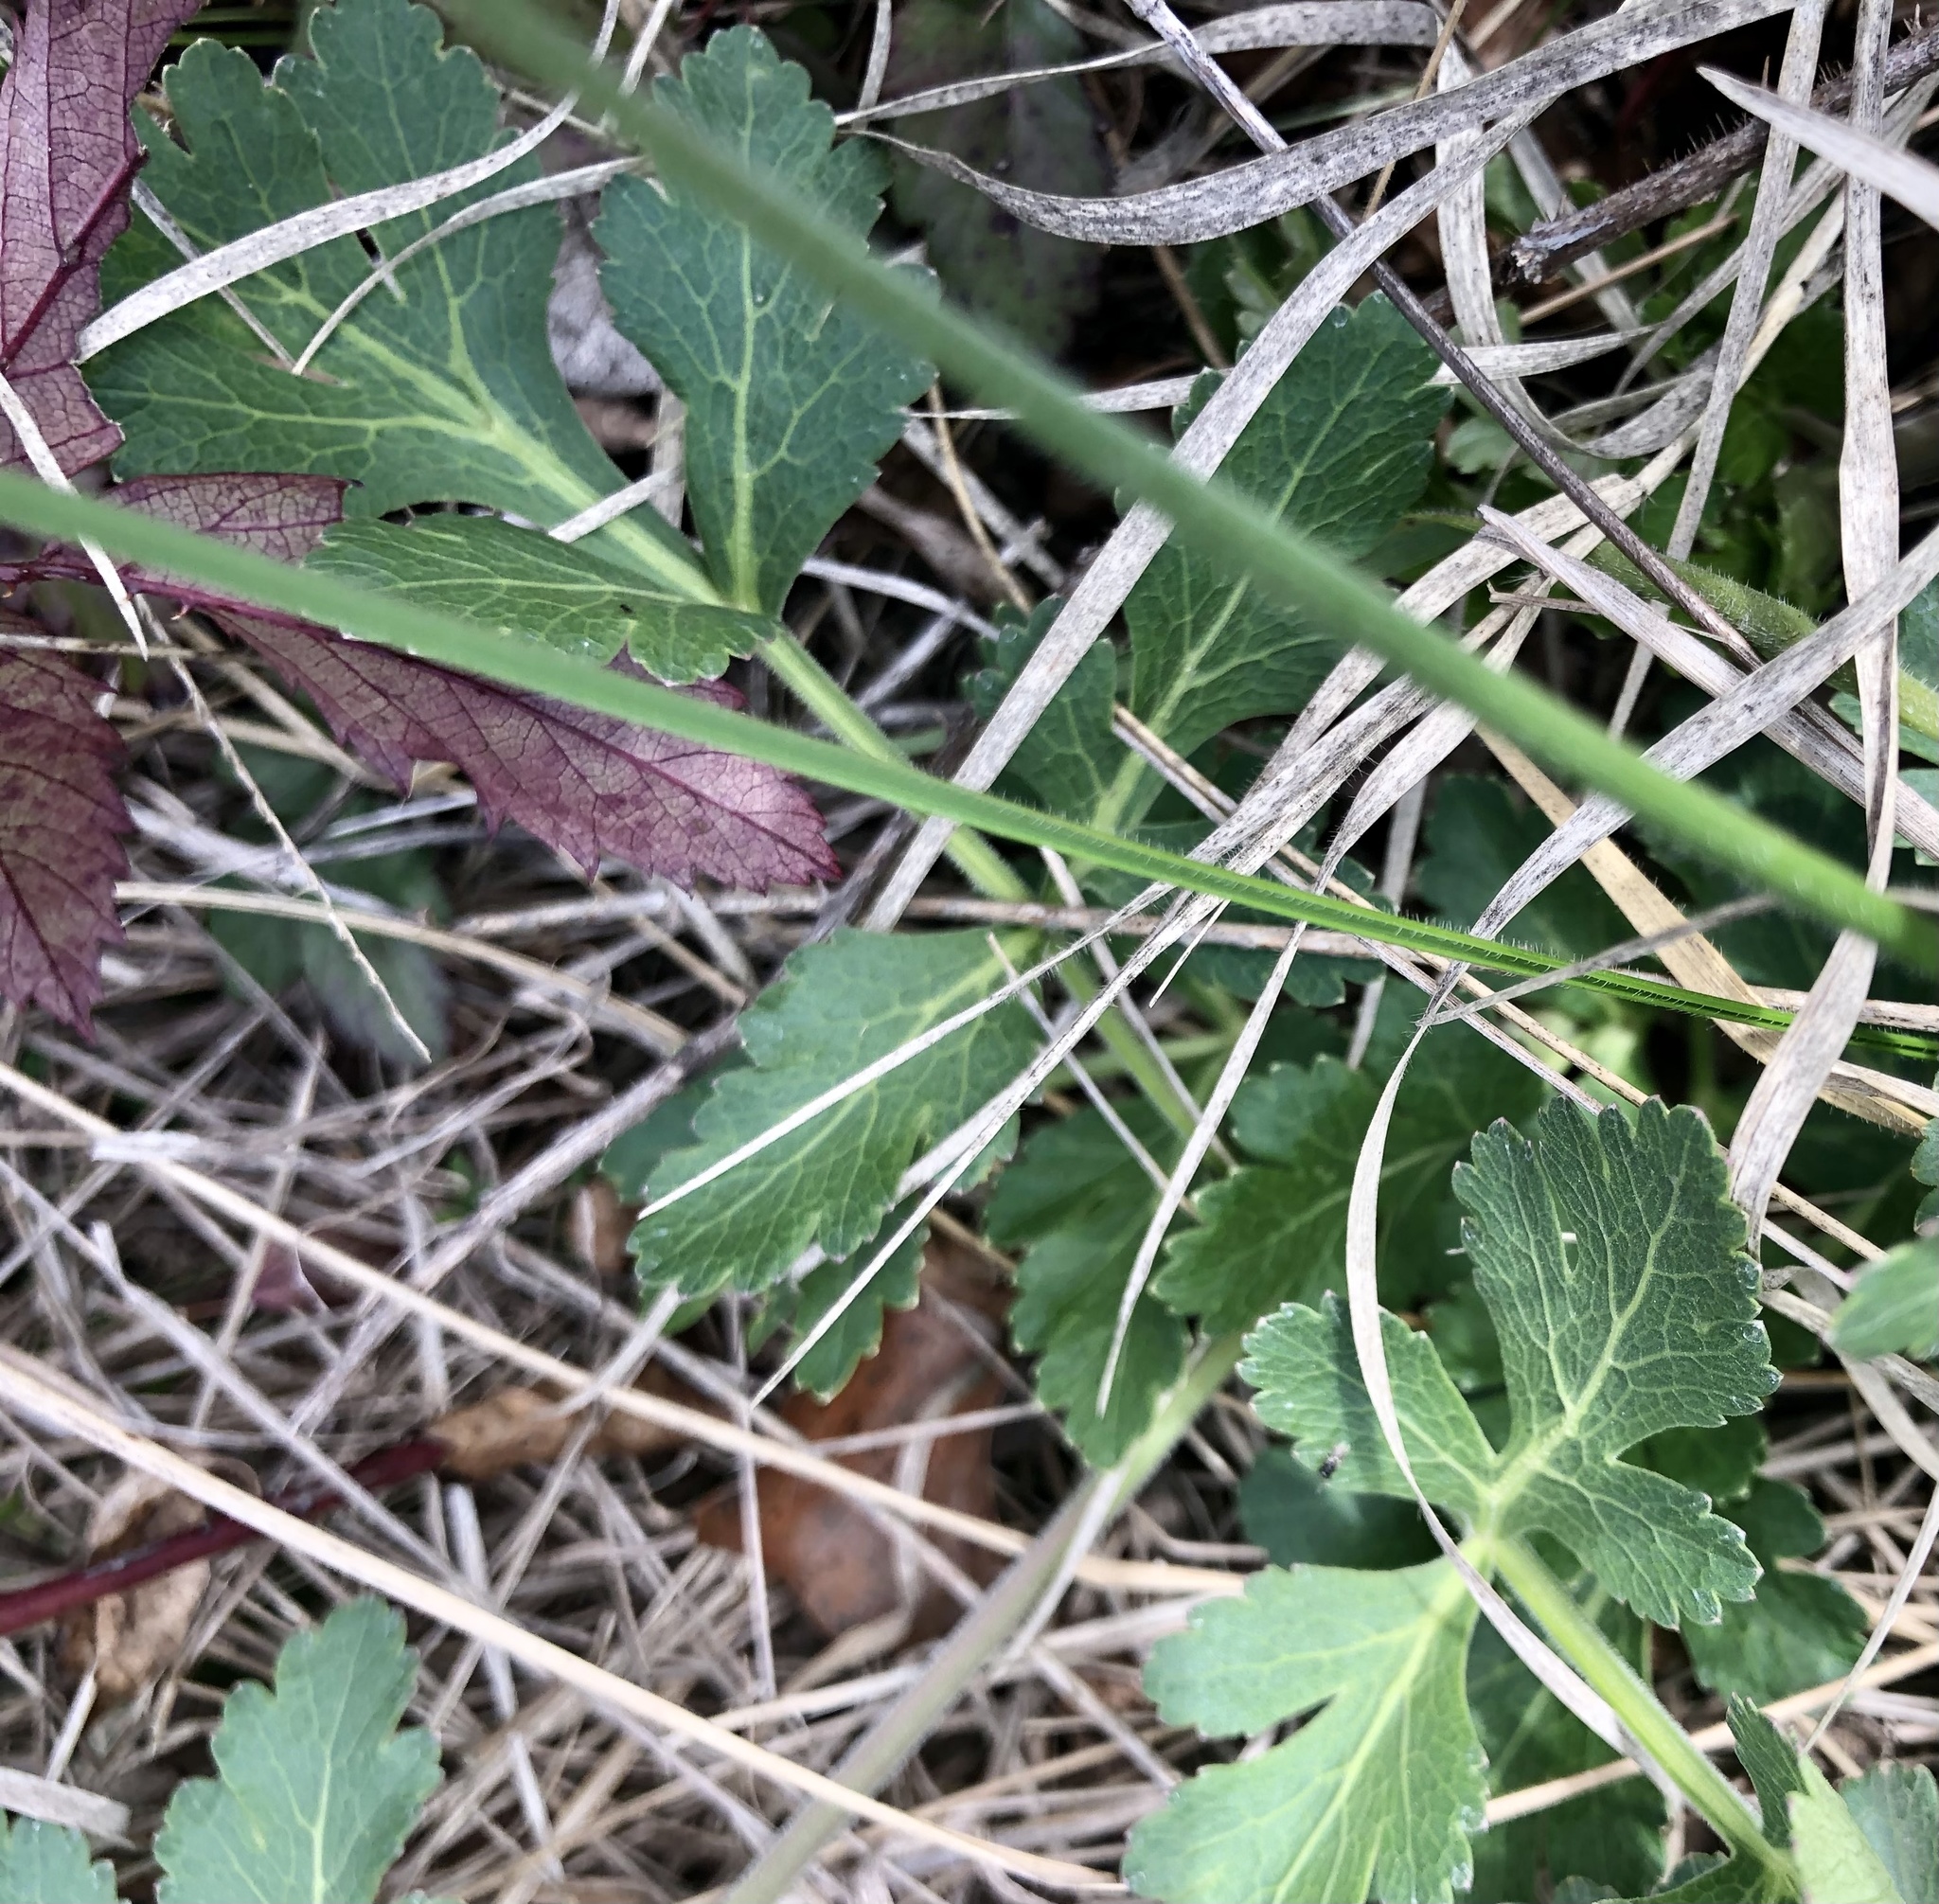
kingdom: Plantae
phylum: Tracheophyta
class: Magnoliopsida
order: Apiales
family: Apiaceae
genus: Polytaenia
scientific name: Polytaenia texana
